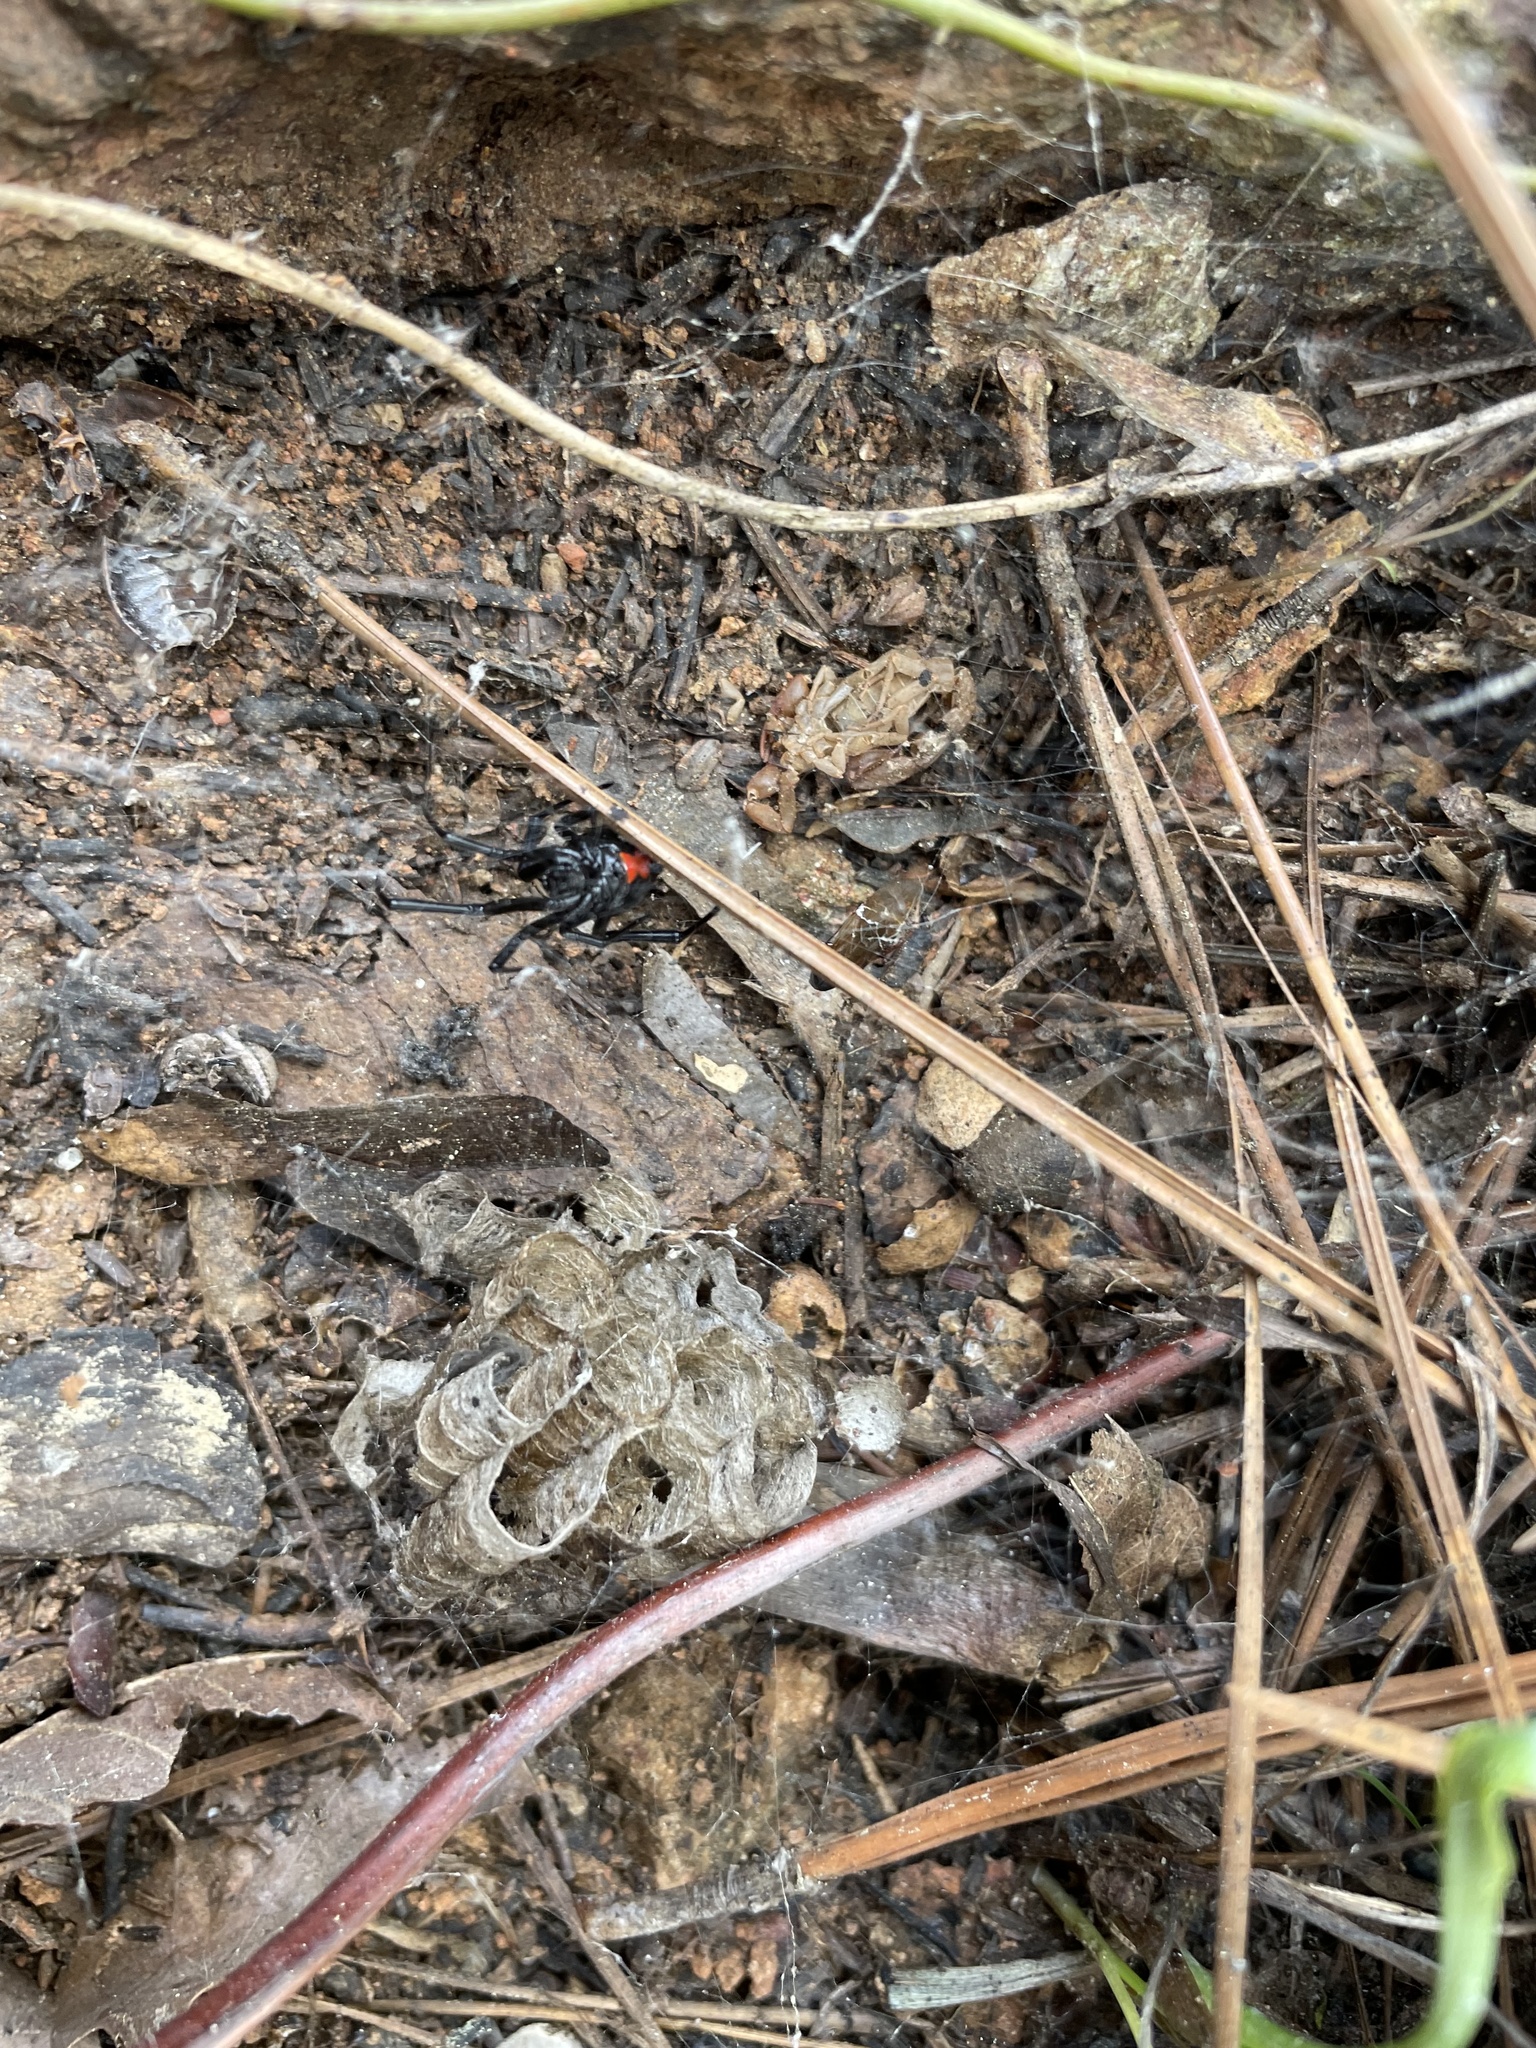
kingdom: Animalia
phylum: Arthropoda
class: Arachnida
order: Araneae
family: Theridiidae
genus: Latrodectus
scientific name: Latrodectus mactans
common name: Cobweb spiders
